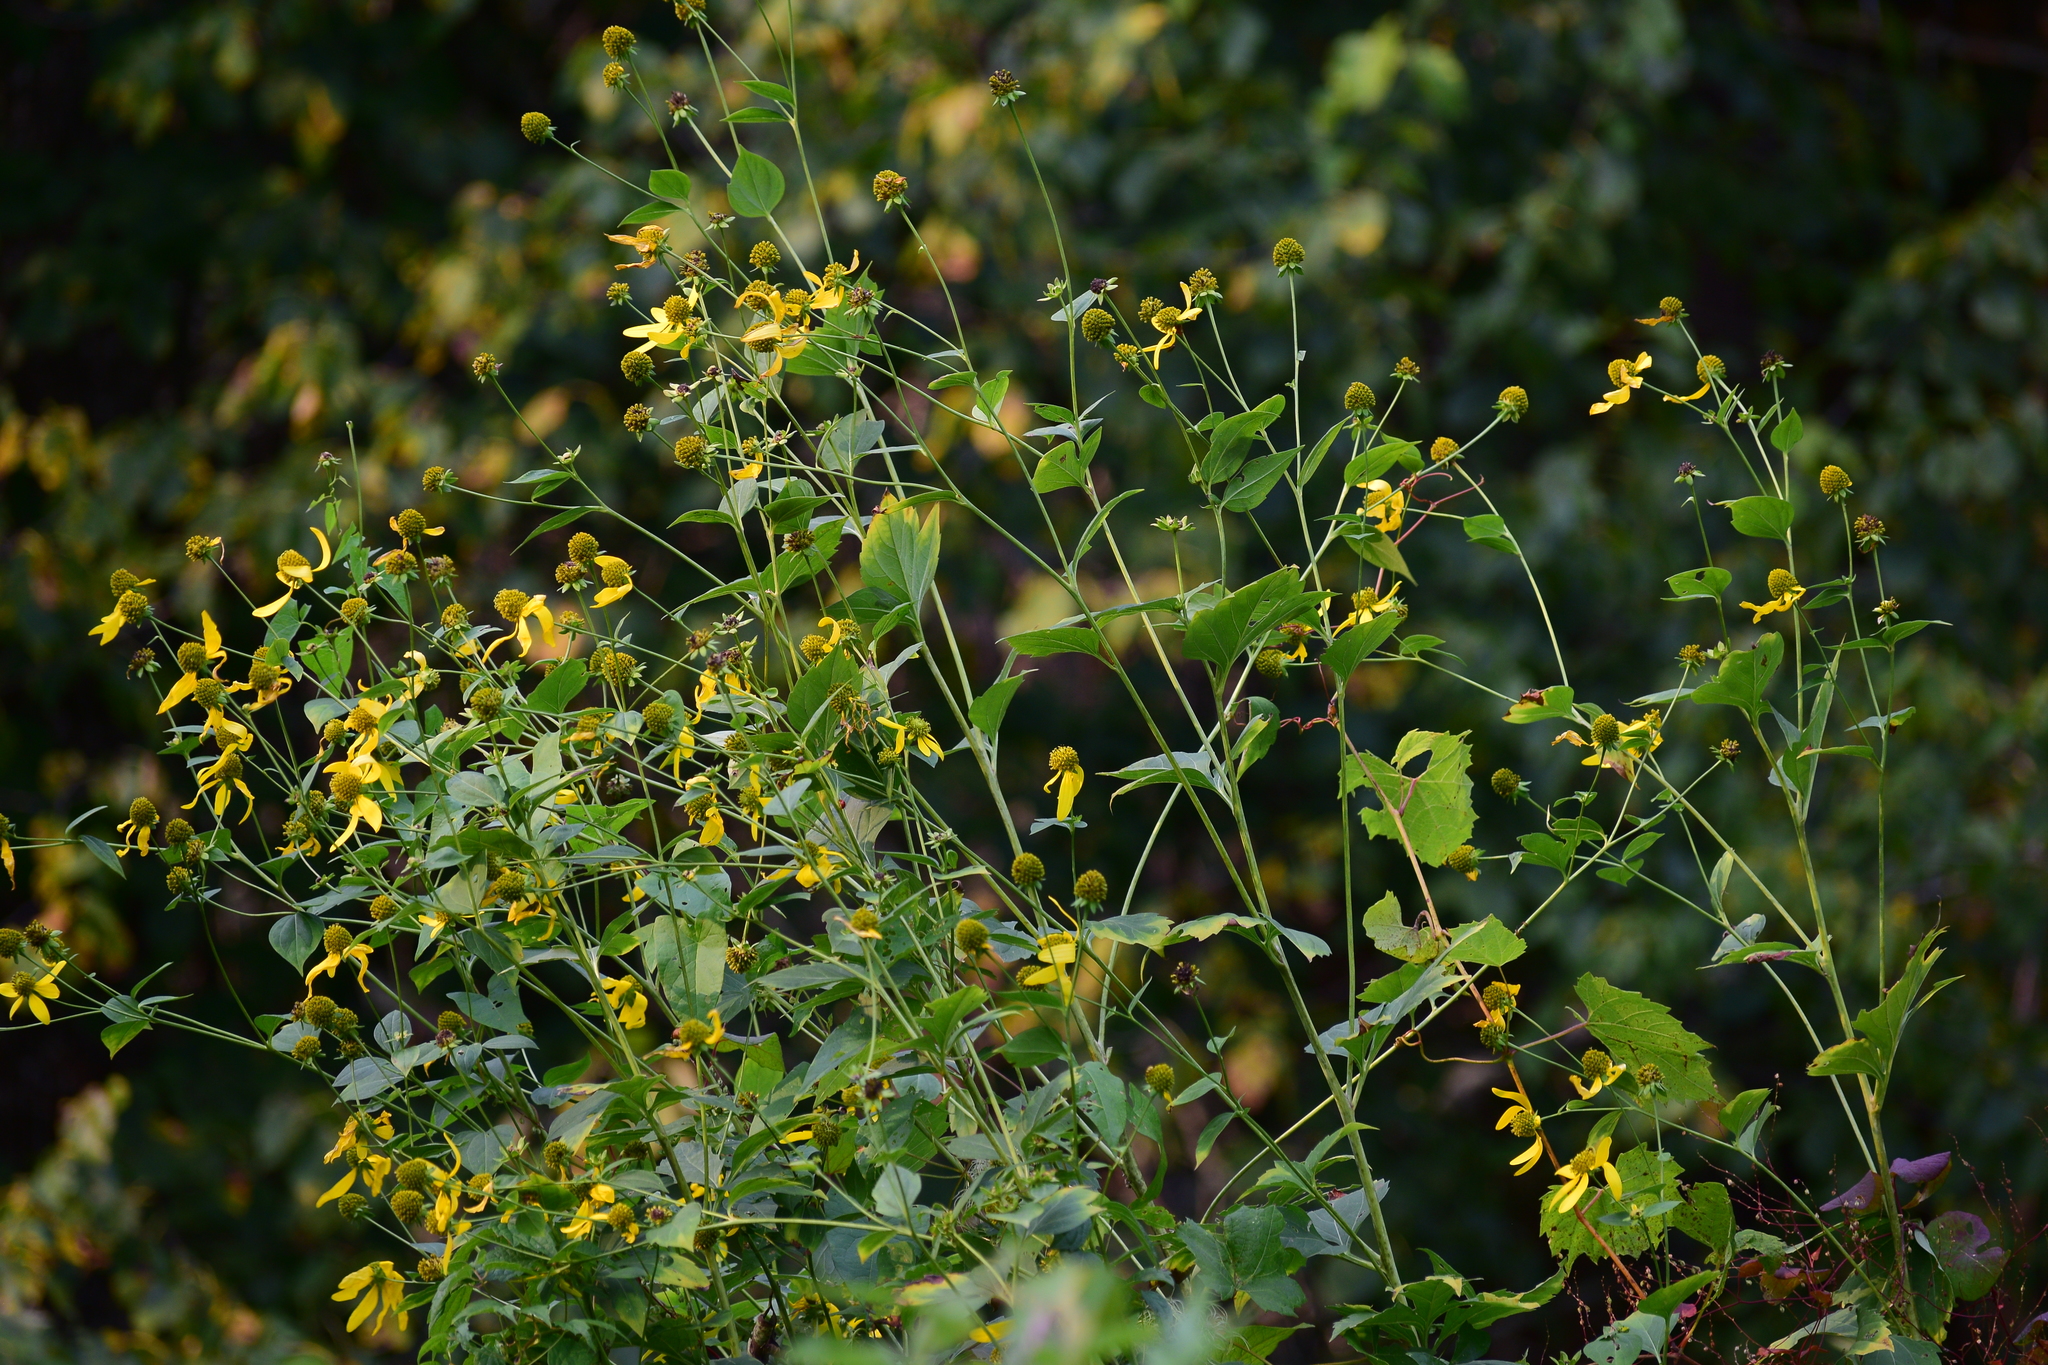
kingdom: Plantae
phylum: Tracheophyta
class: Magnoliopsida
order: Asterales
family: Asteraceae
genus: Rudbeckia
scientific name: Rudbeckia laciniata
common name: Coneflower
